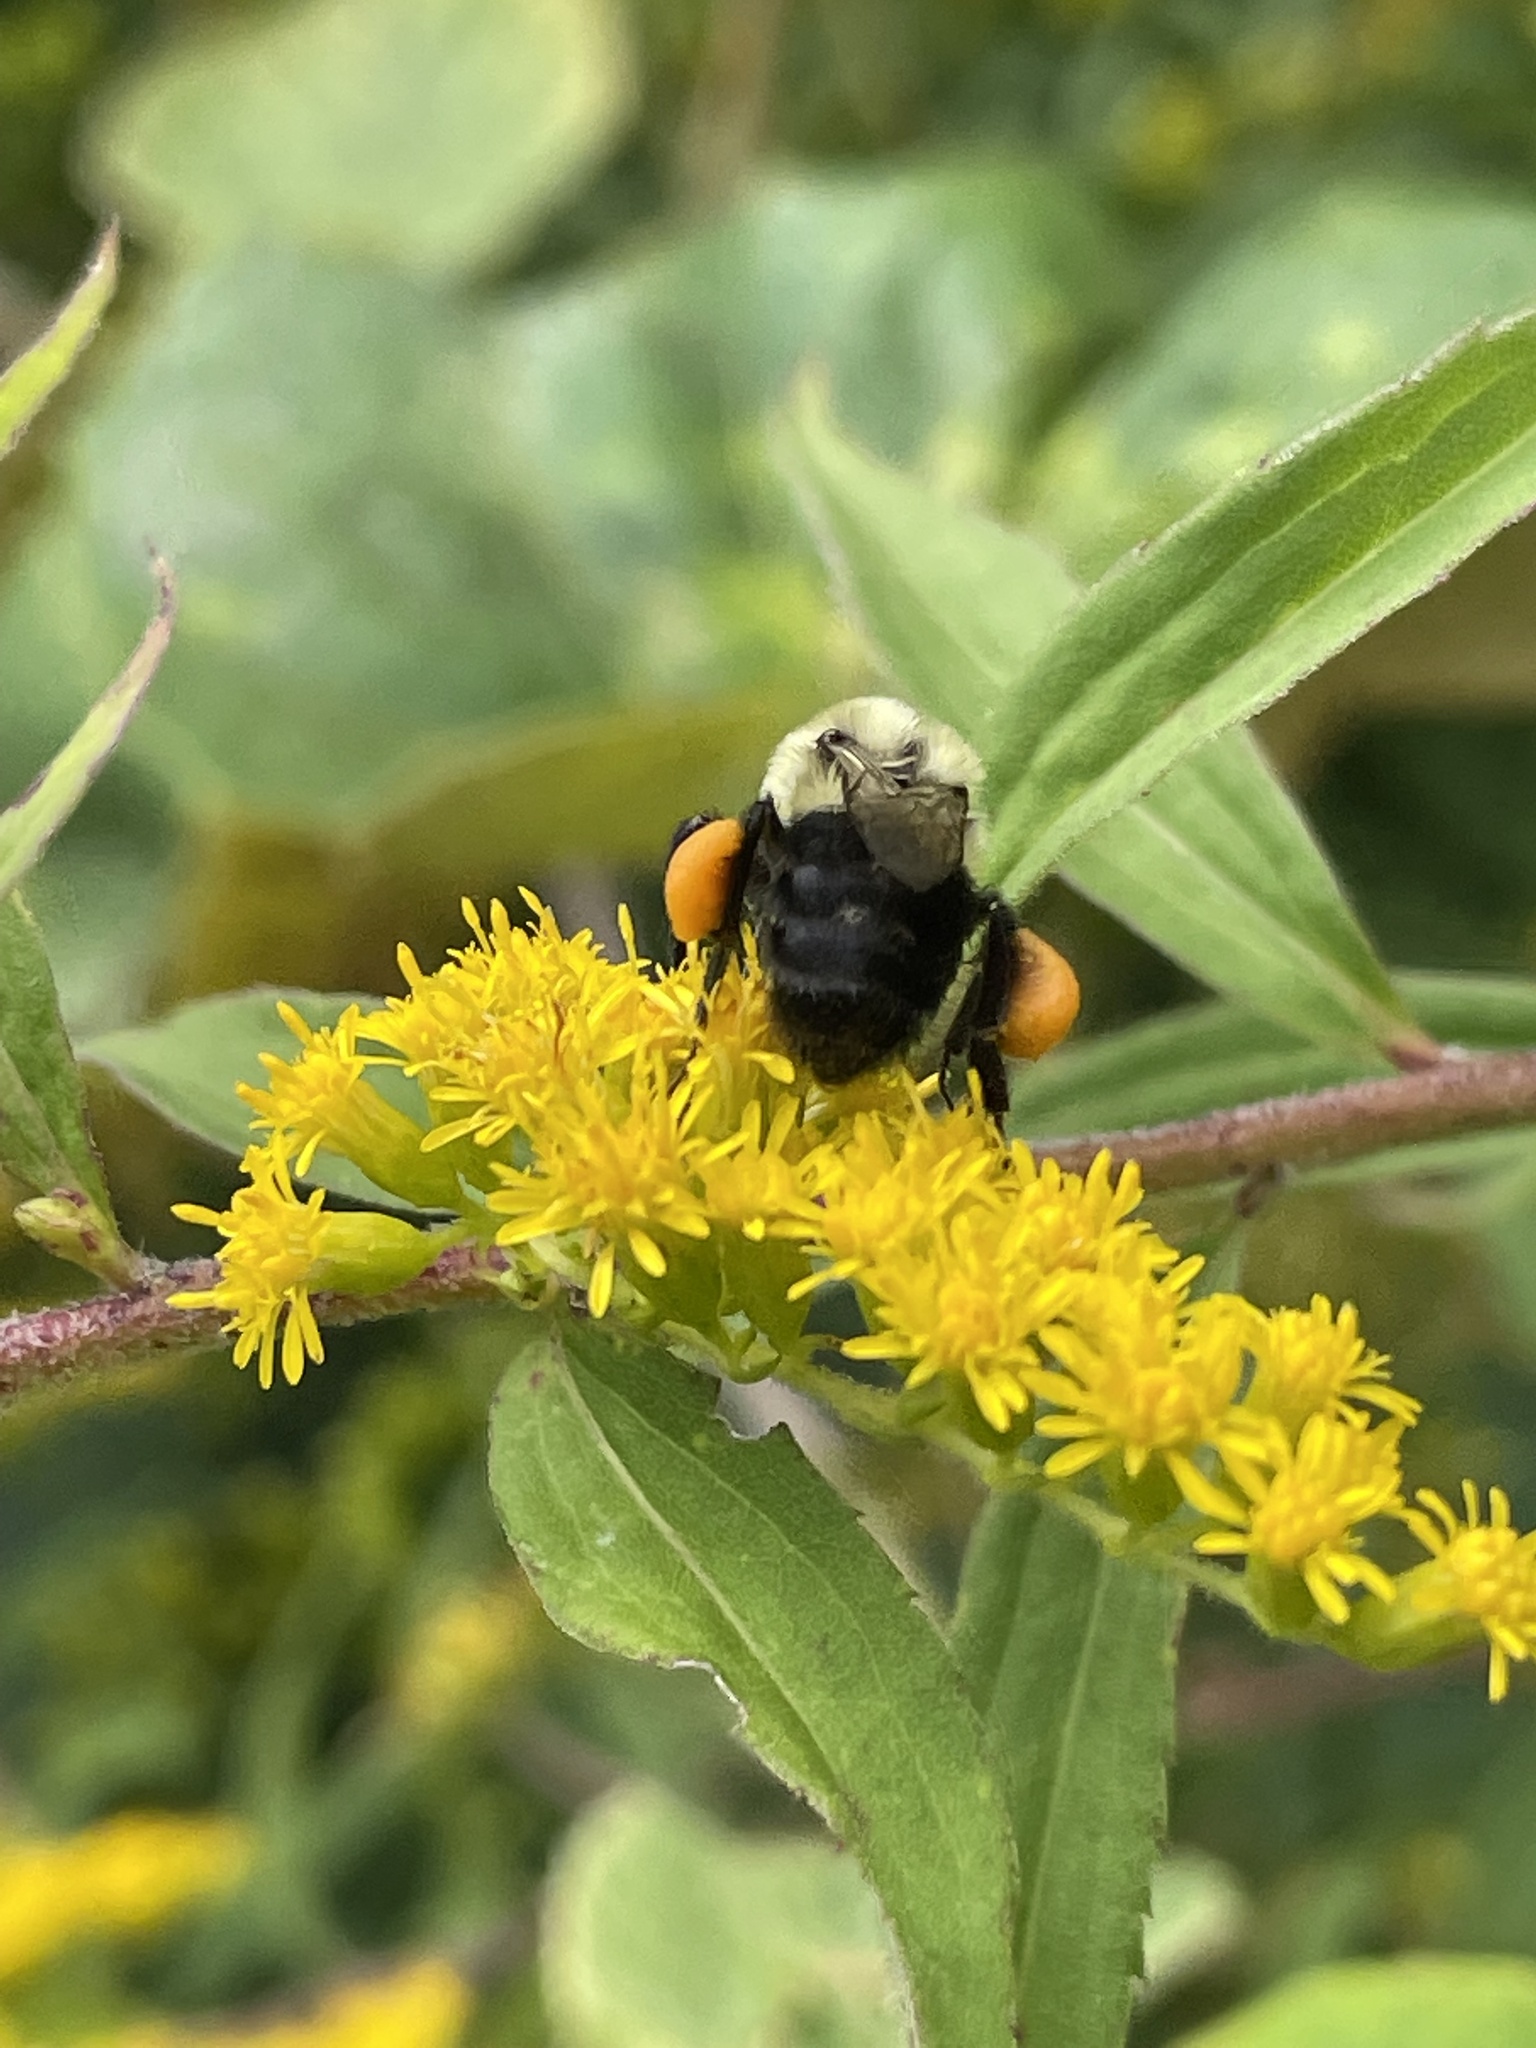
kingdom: Animalia
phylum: Arthropoda
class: Insecta
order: Hymenoptera
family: Apidae
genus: Bombus
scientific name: Bombus impatiens
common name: Common eastern bumble bee
